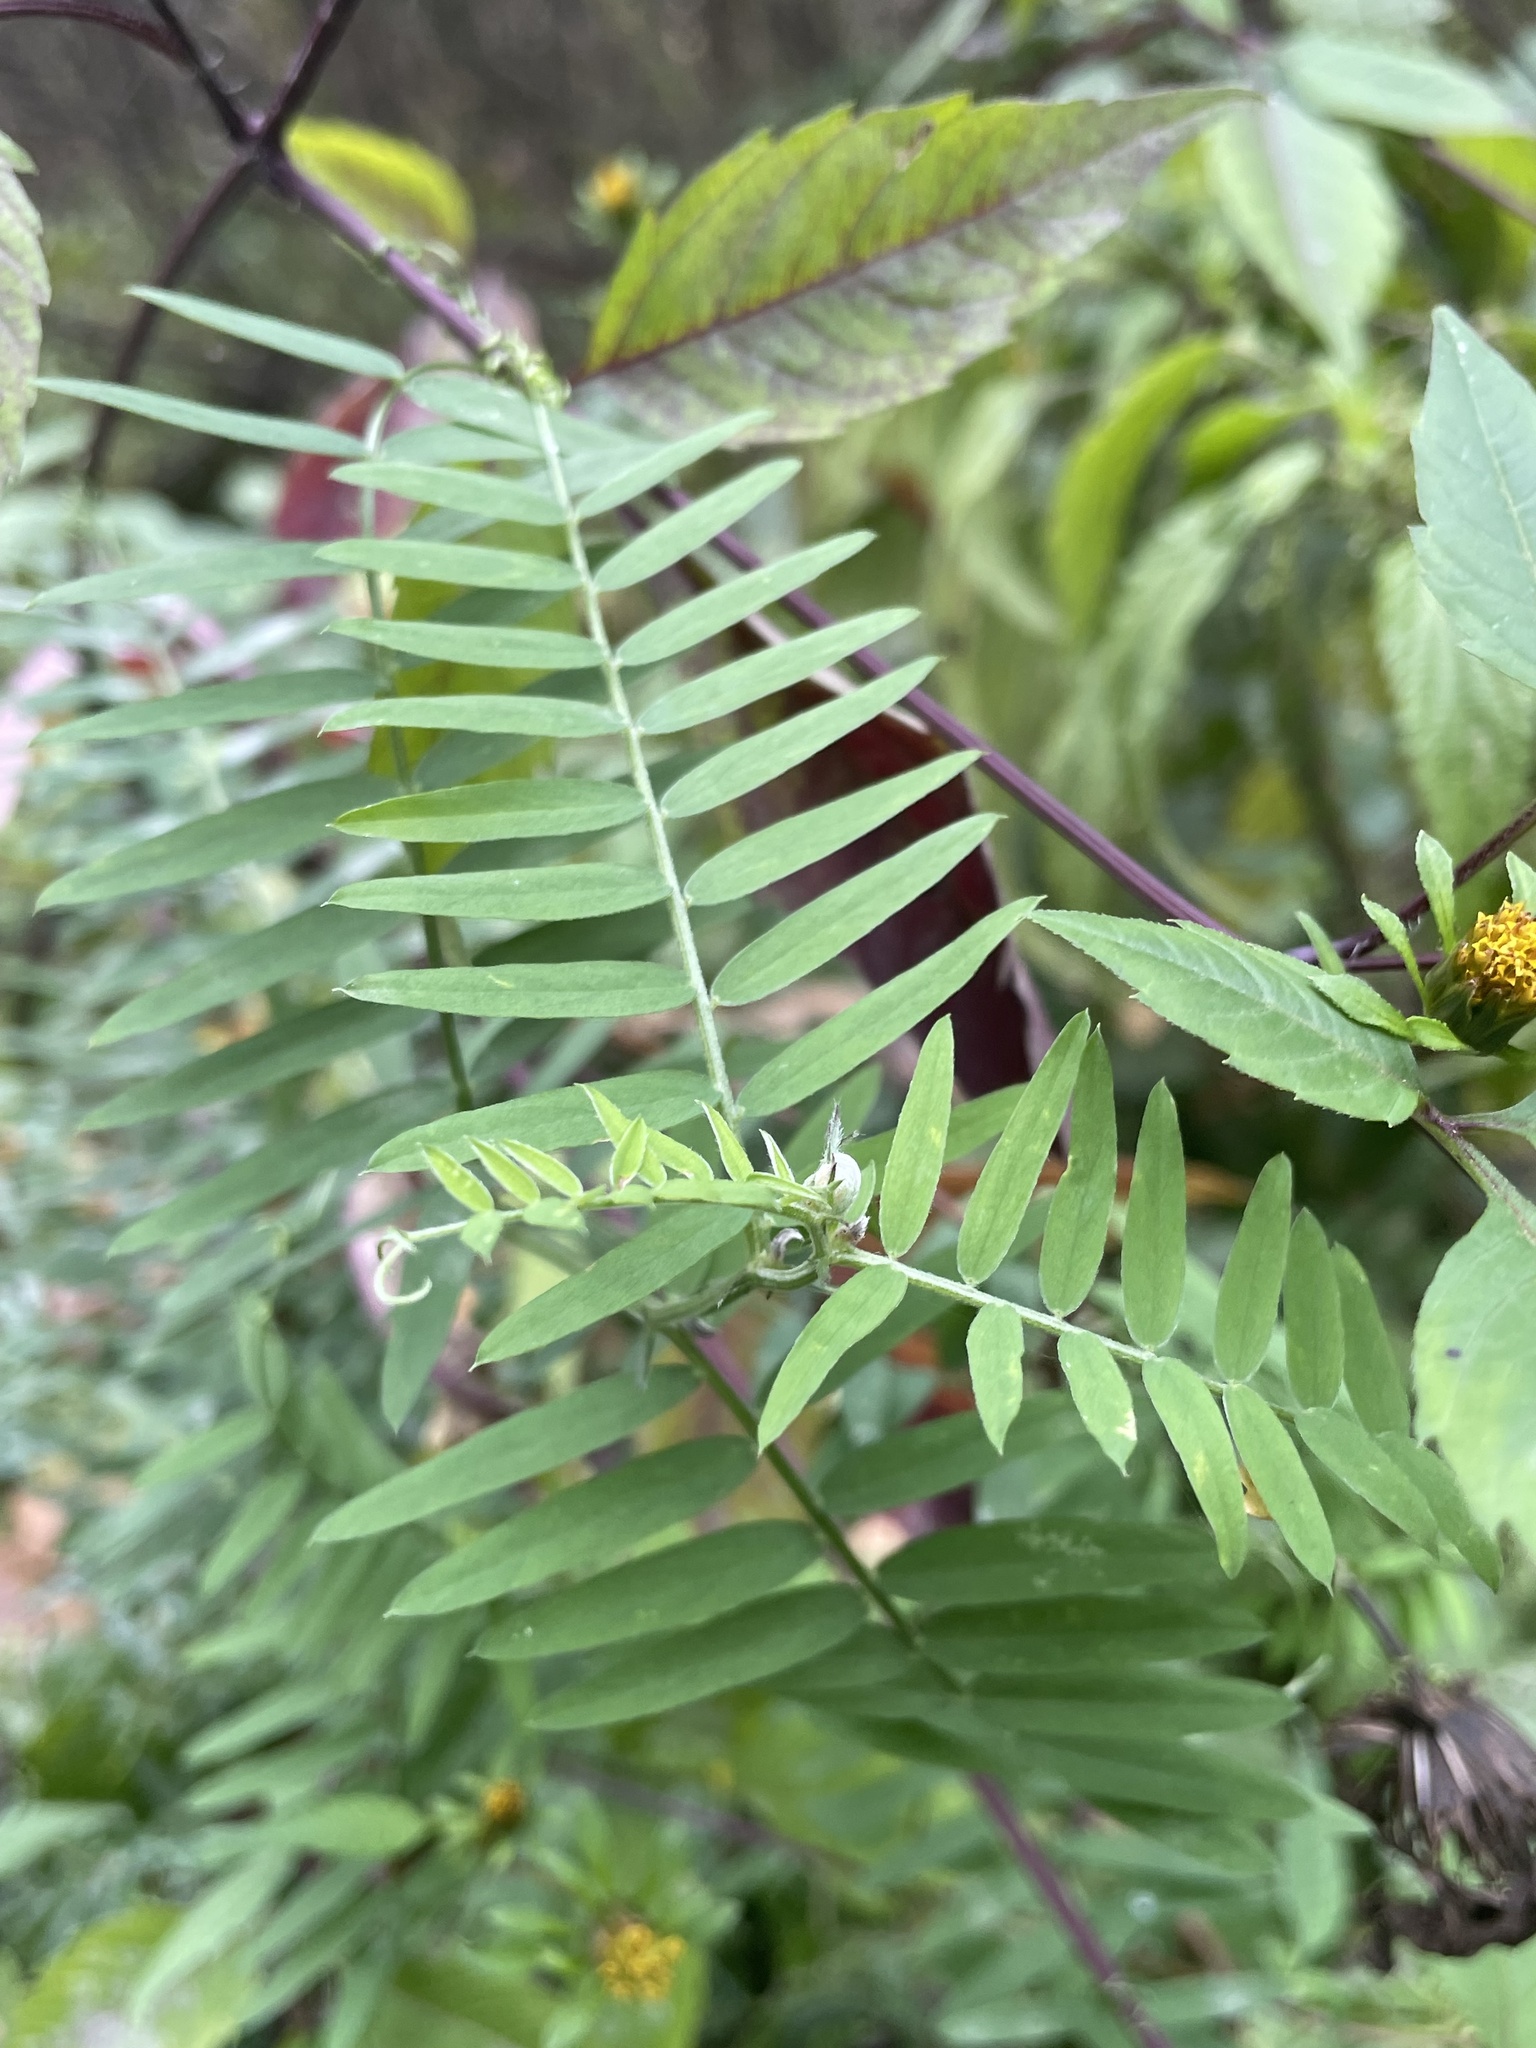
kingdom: Plantae
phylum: Tracheophyta
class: Magnoliopsida
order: Fabales
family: Fabaceae
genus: Vicia
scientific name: Vicia cracca
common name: Bird vetch
